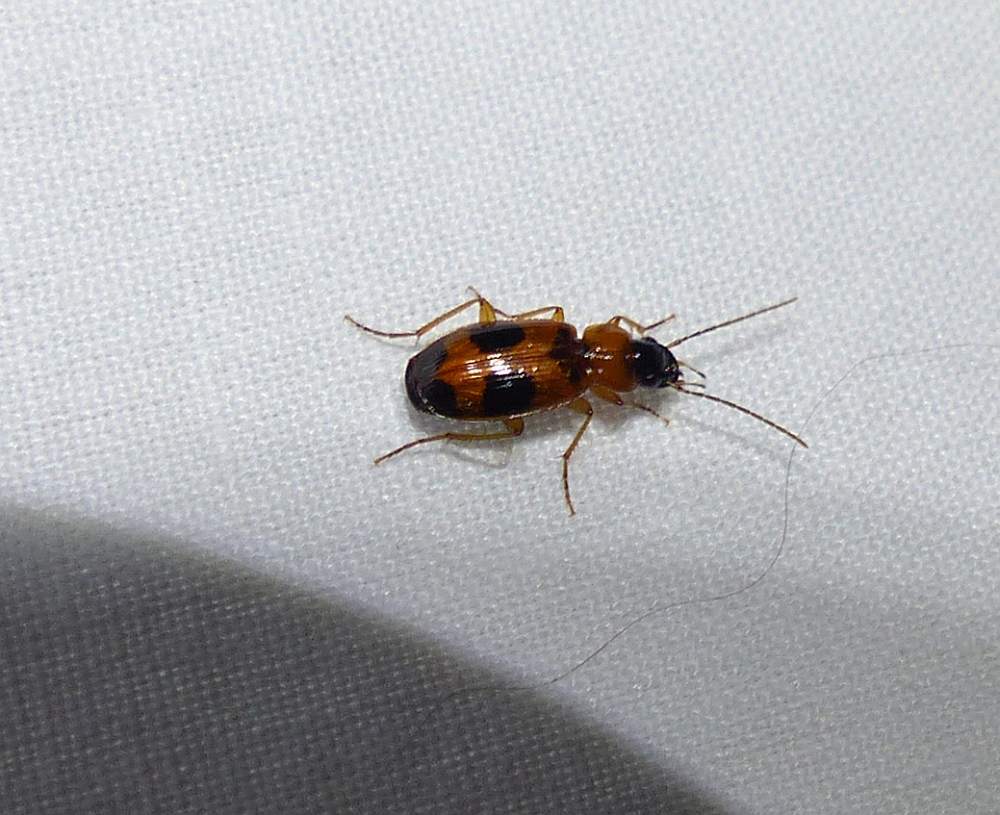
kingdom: Animalia
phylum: Arthropoda
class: Insecta
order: Coleoptera
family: Carabidae
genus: Badister
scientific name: Badister neopulchellus
